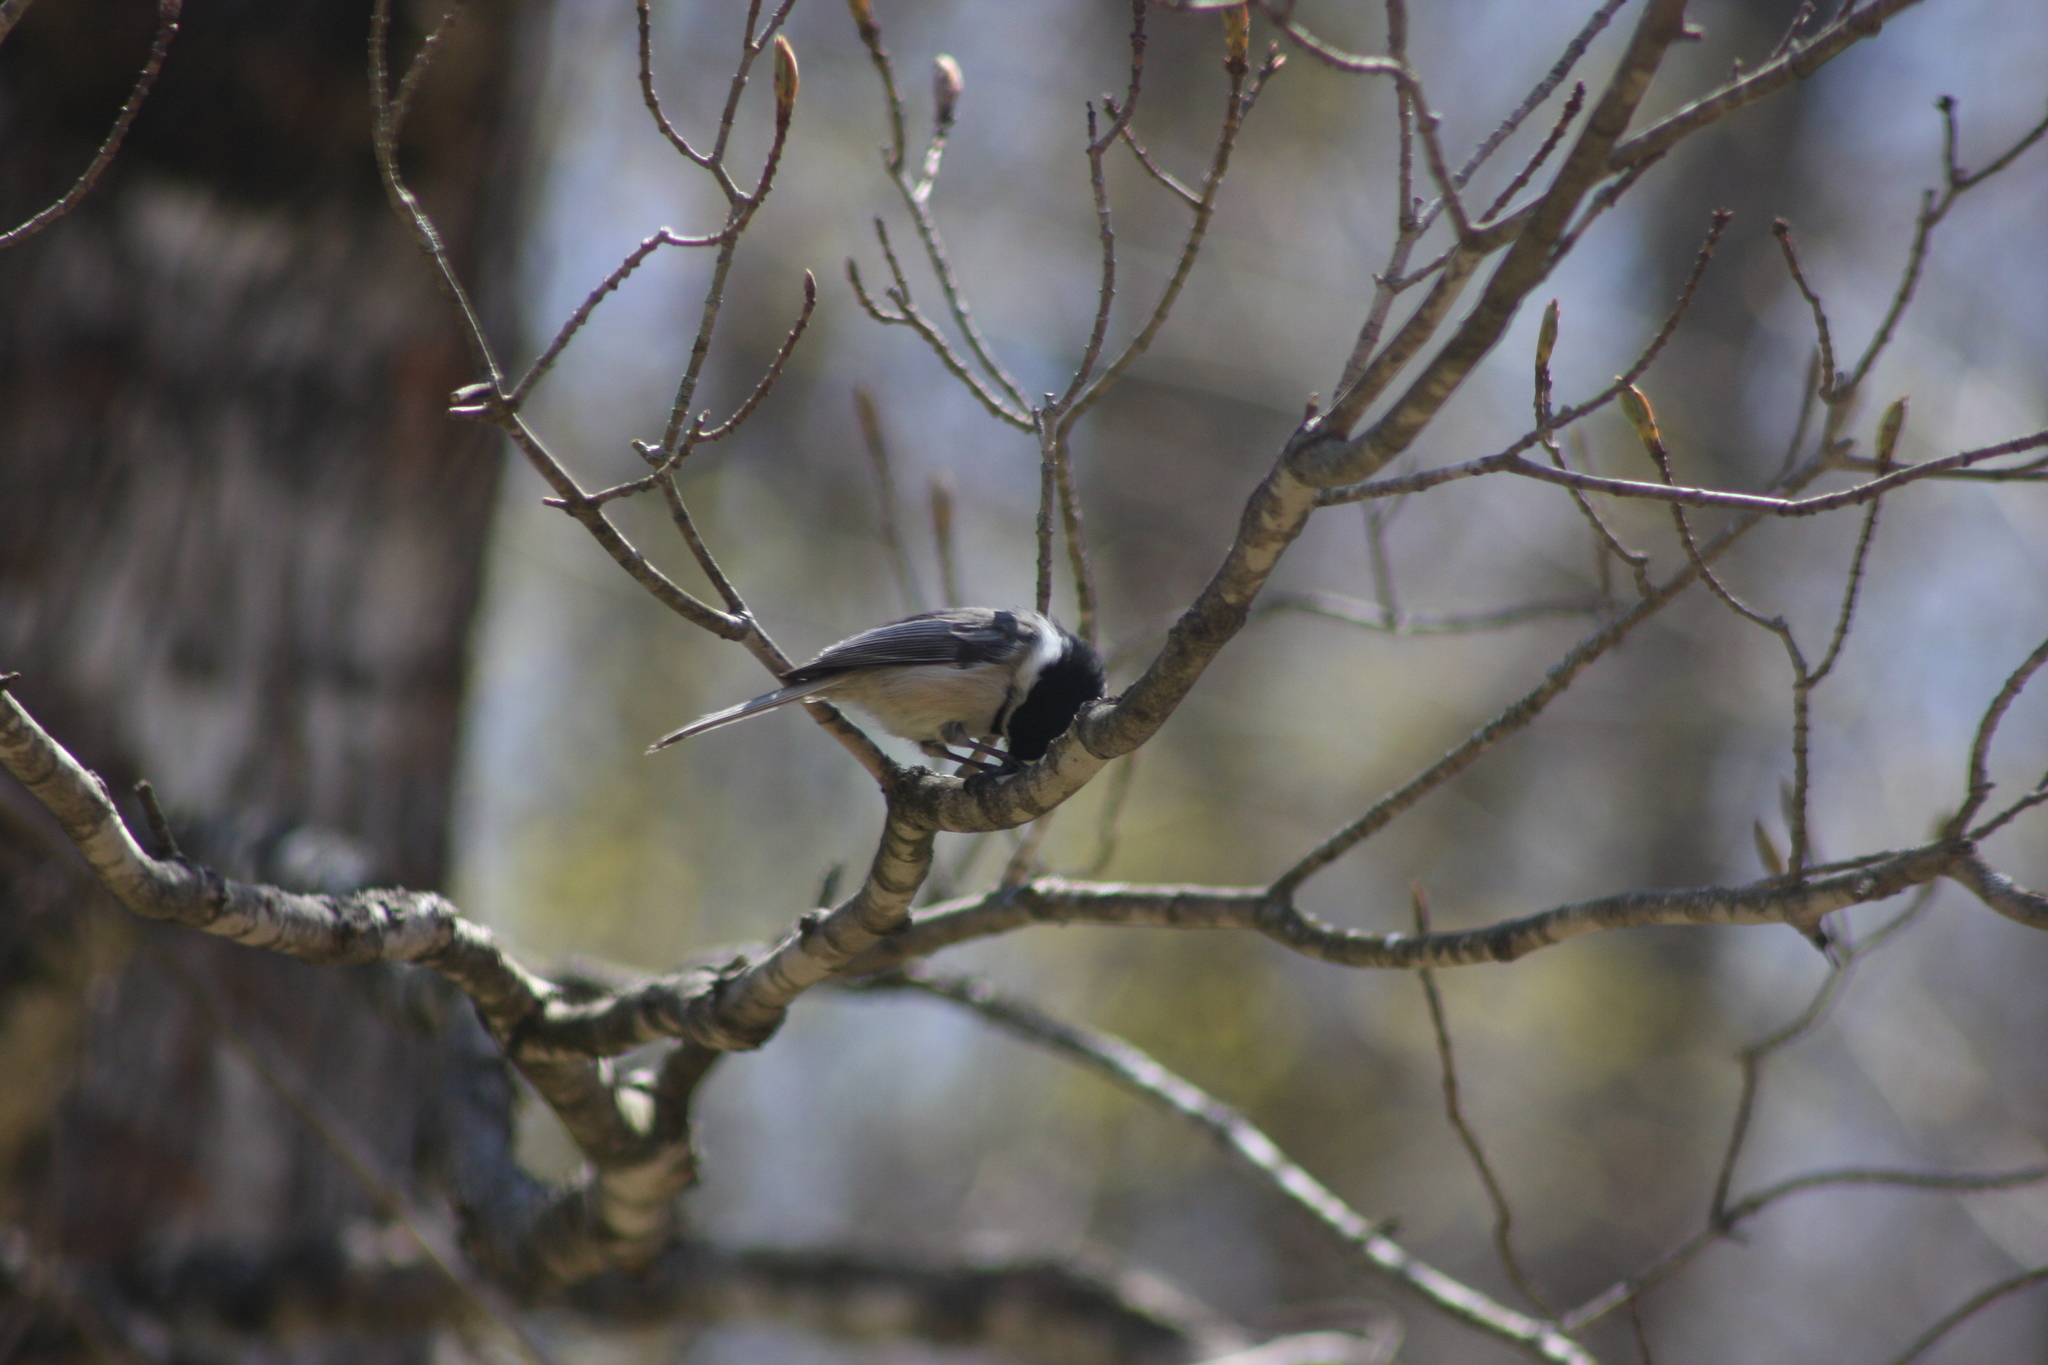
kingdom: Animalia
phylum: Chordata
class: Aves
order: Passeriformes
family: Paridae
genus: Poecile
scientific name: Poecile atricapillus
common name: Black-capped chickadee
